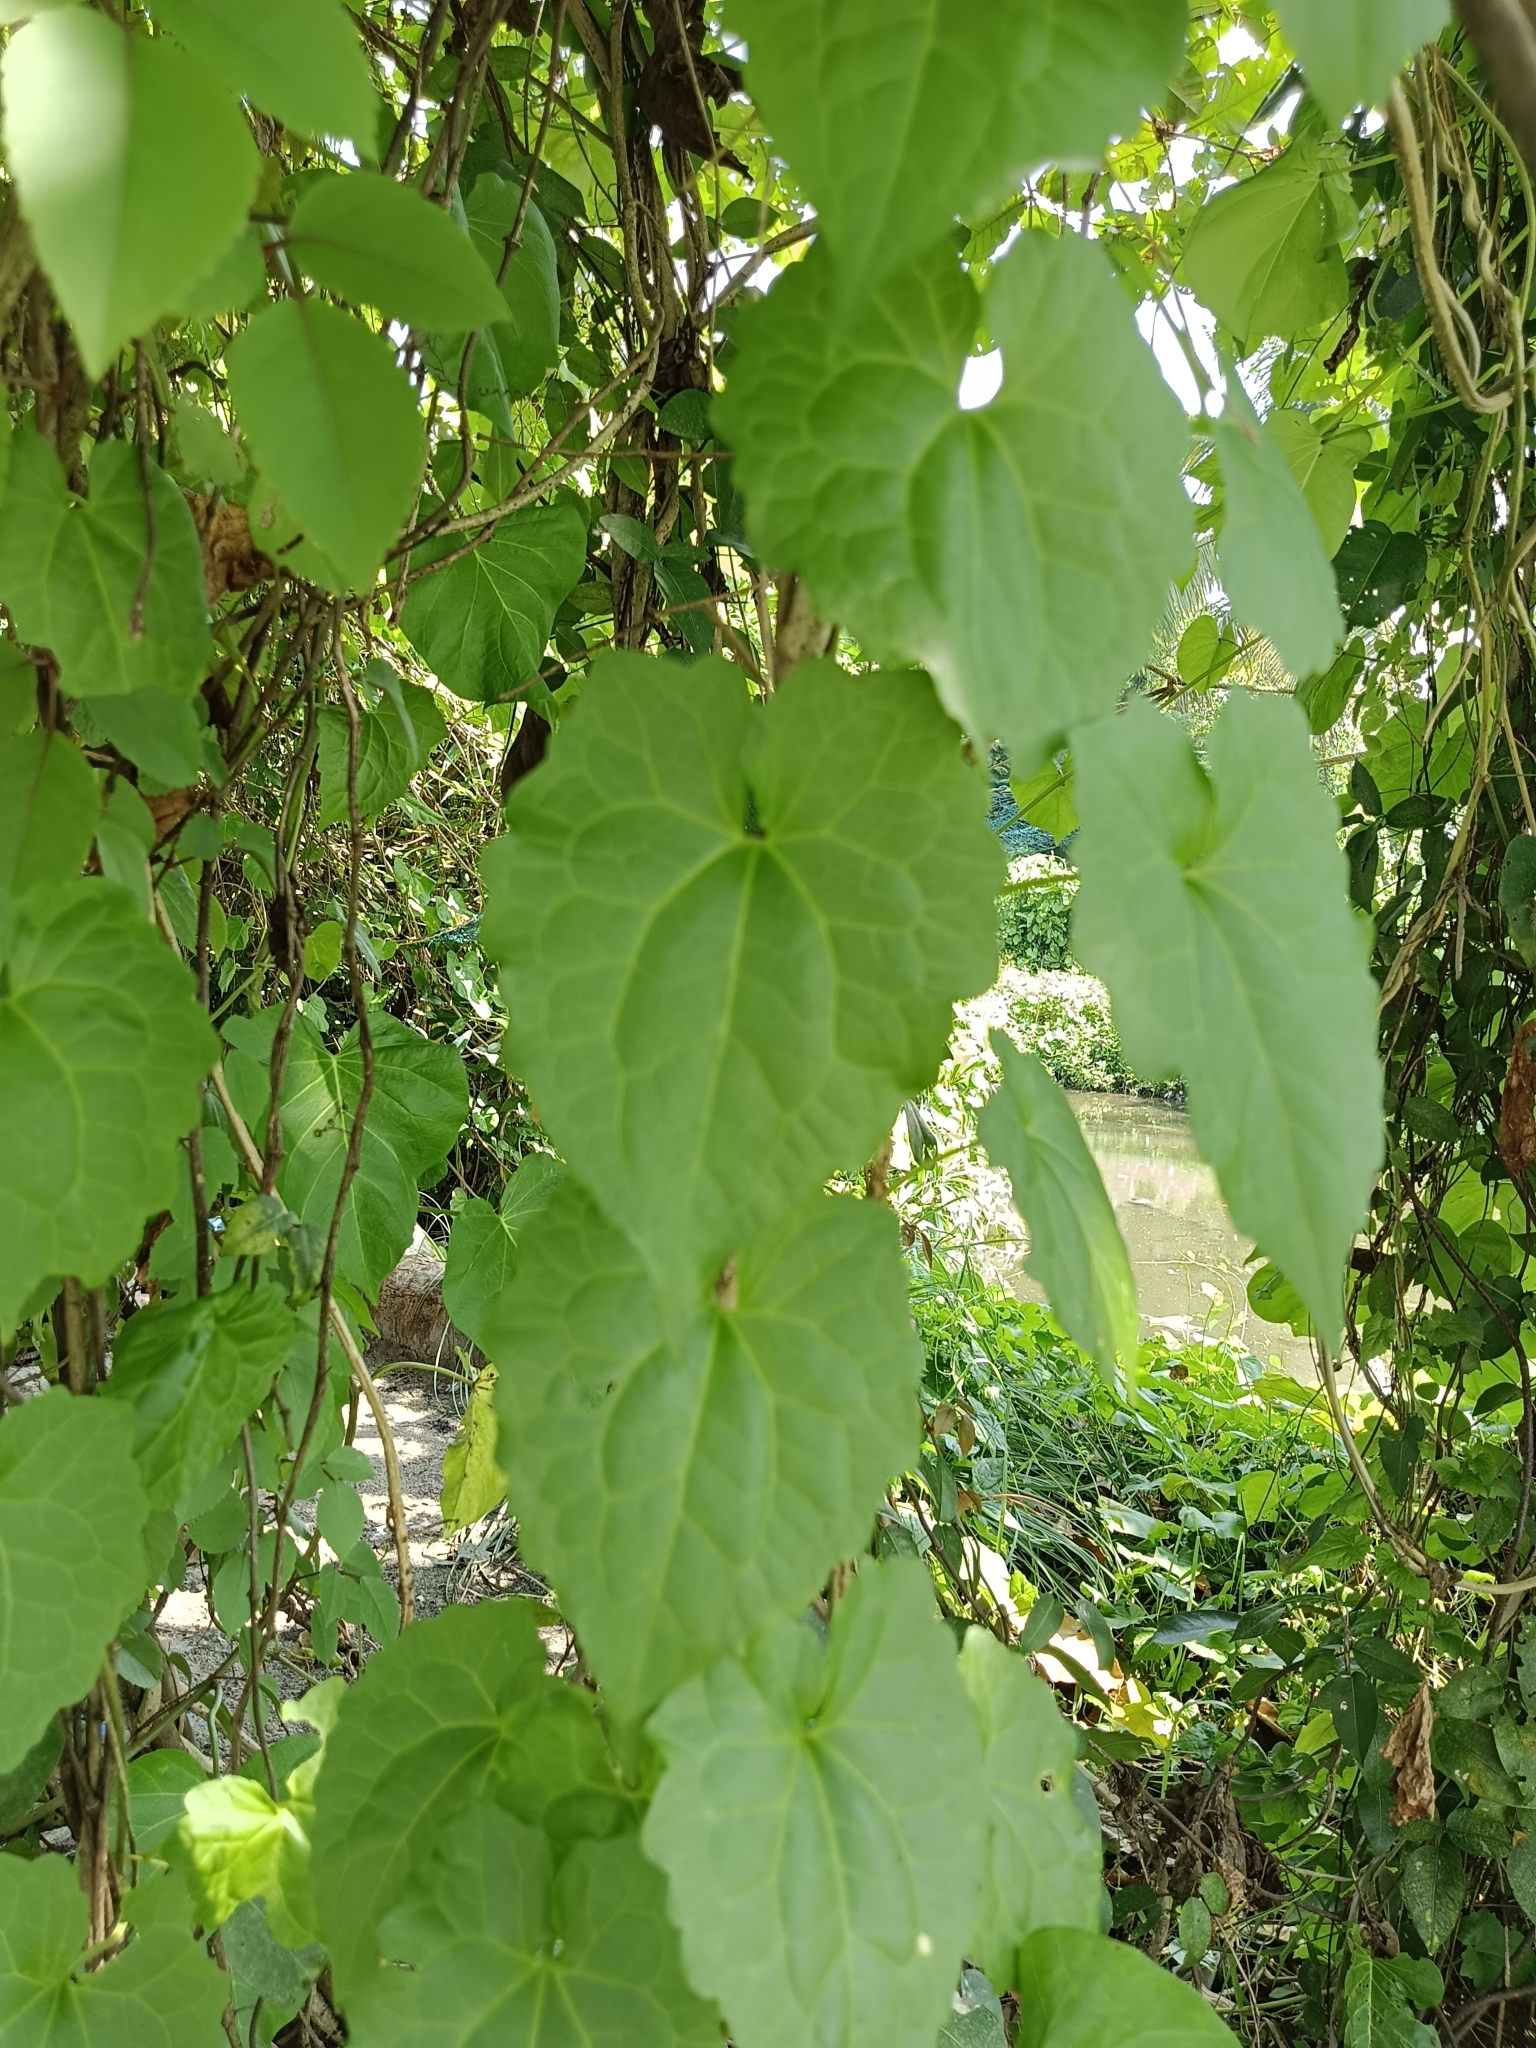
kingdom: Plantae
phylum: Tracheophyta
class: Magnoliopsida
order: Asterales
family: Asteraceae
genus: Mikania
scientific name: Mikania micrantha
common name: Mile-a-minute
